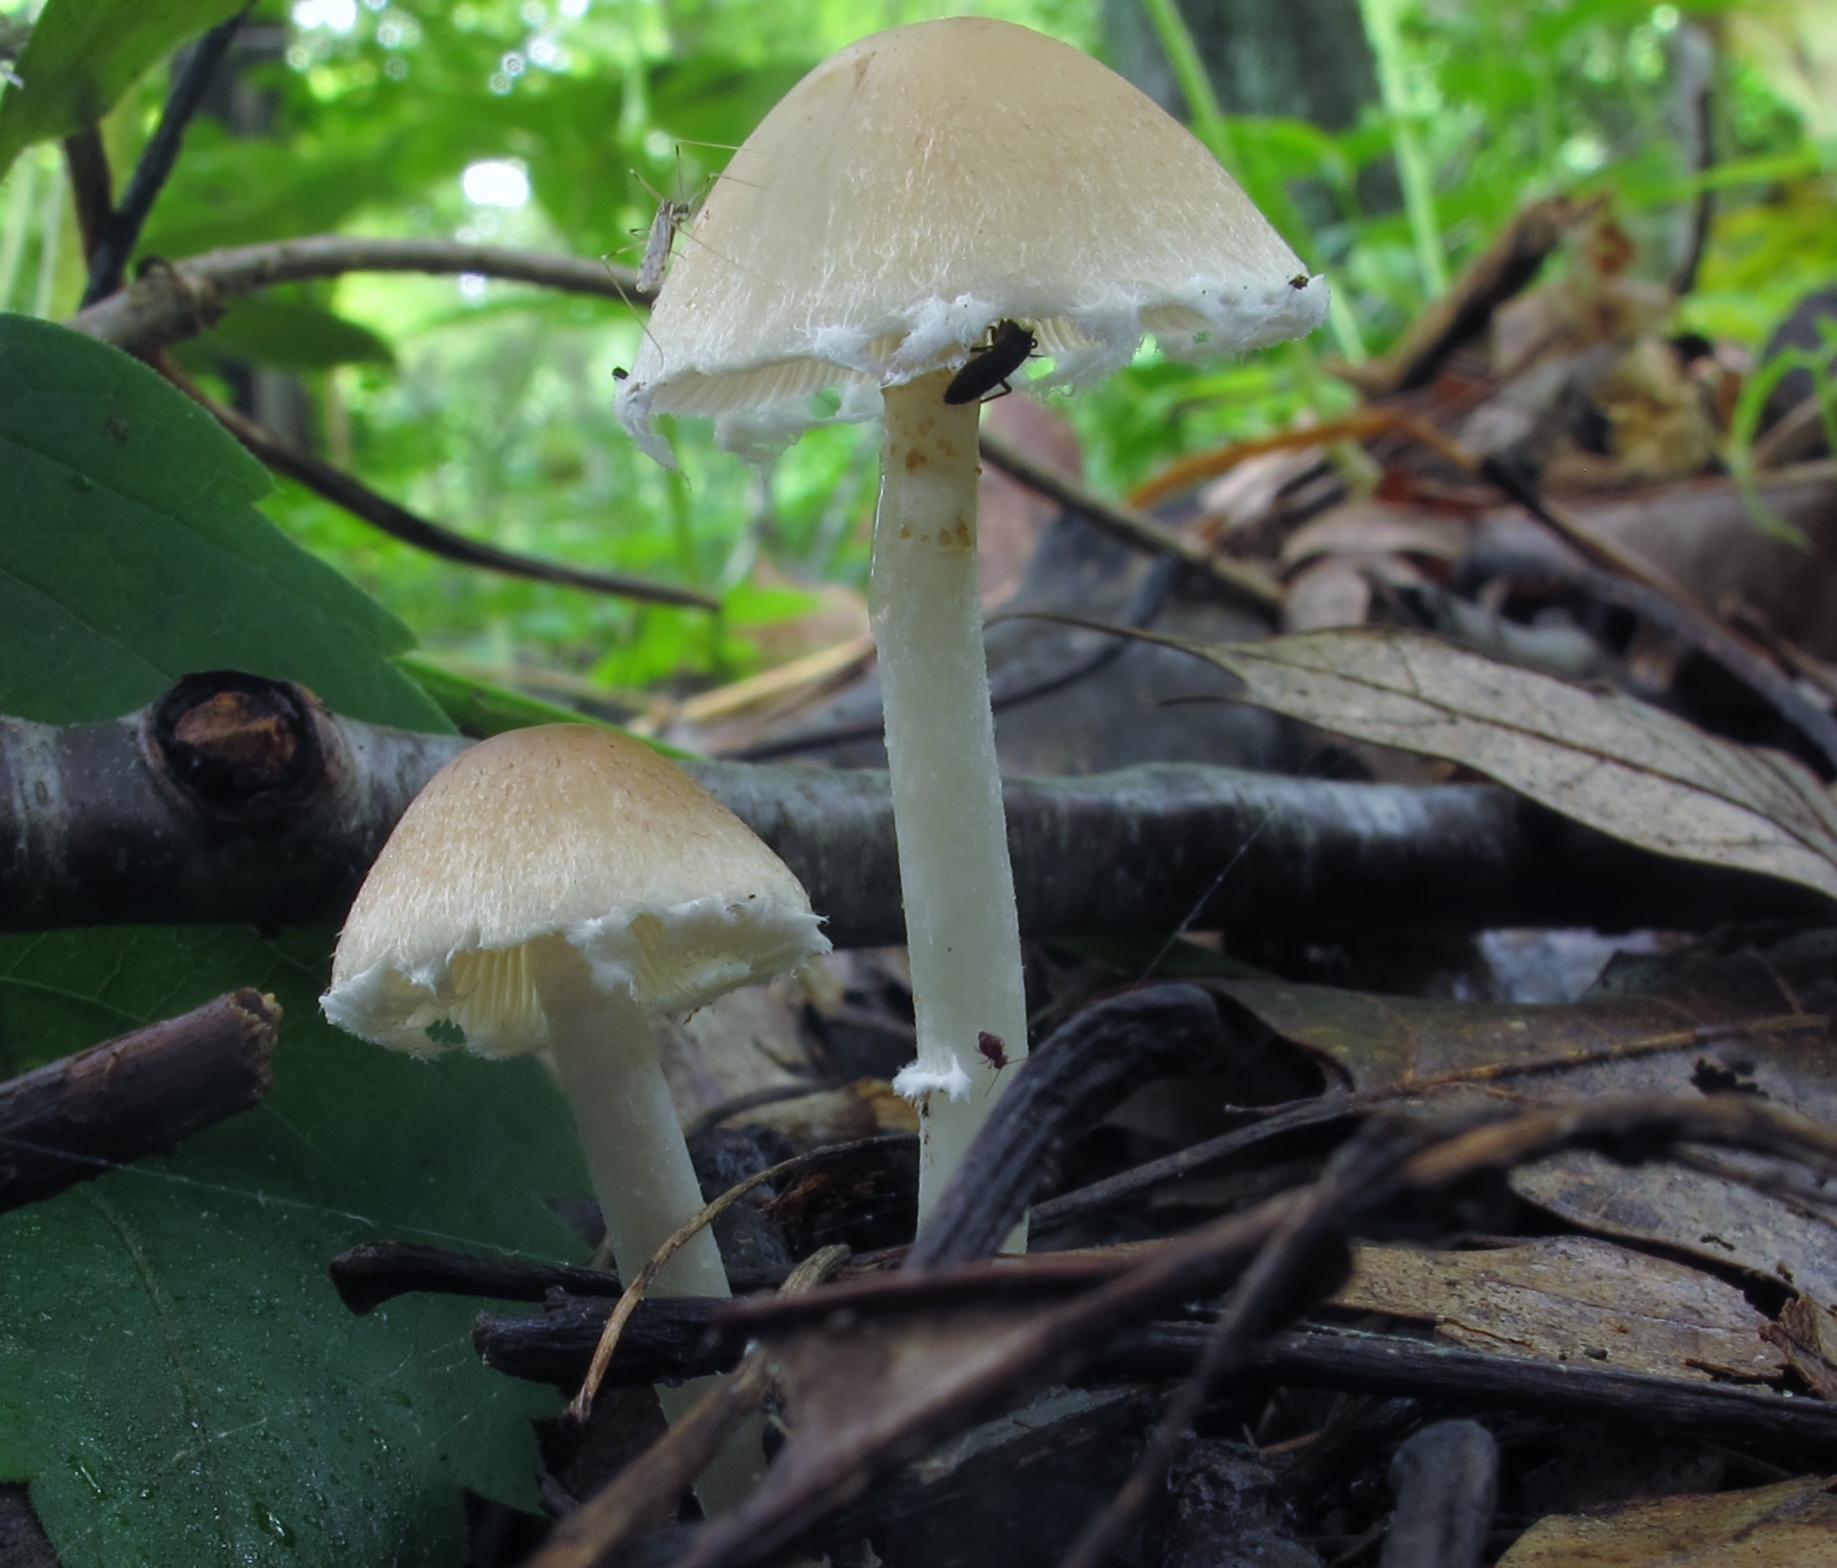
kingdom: Fungi
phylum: Basidiomycota
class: Agaricomycetes
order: Agaricales
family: Psathyrellaceae
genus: Candolleomyces
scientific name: Candolleomyces candolleanus
